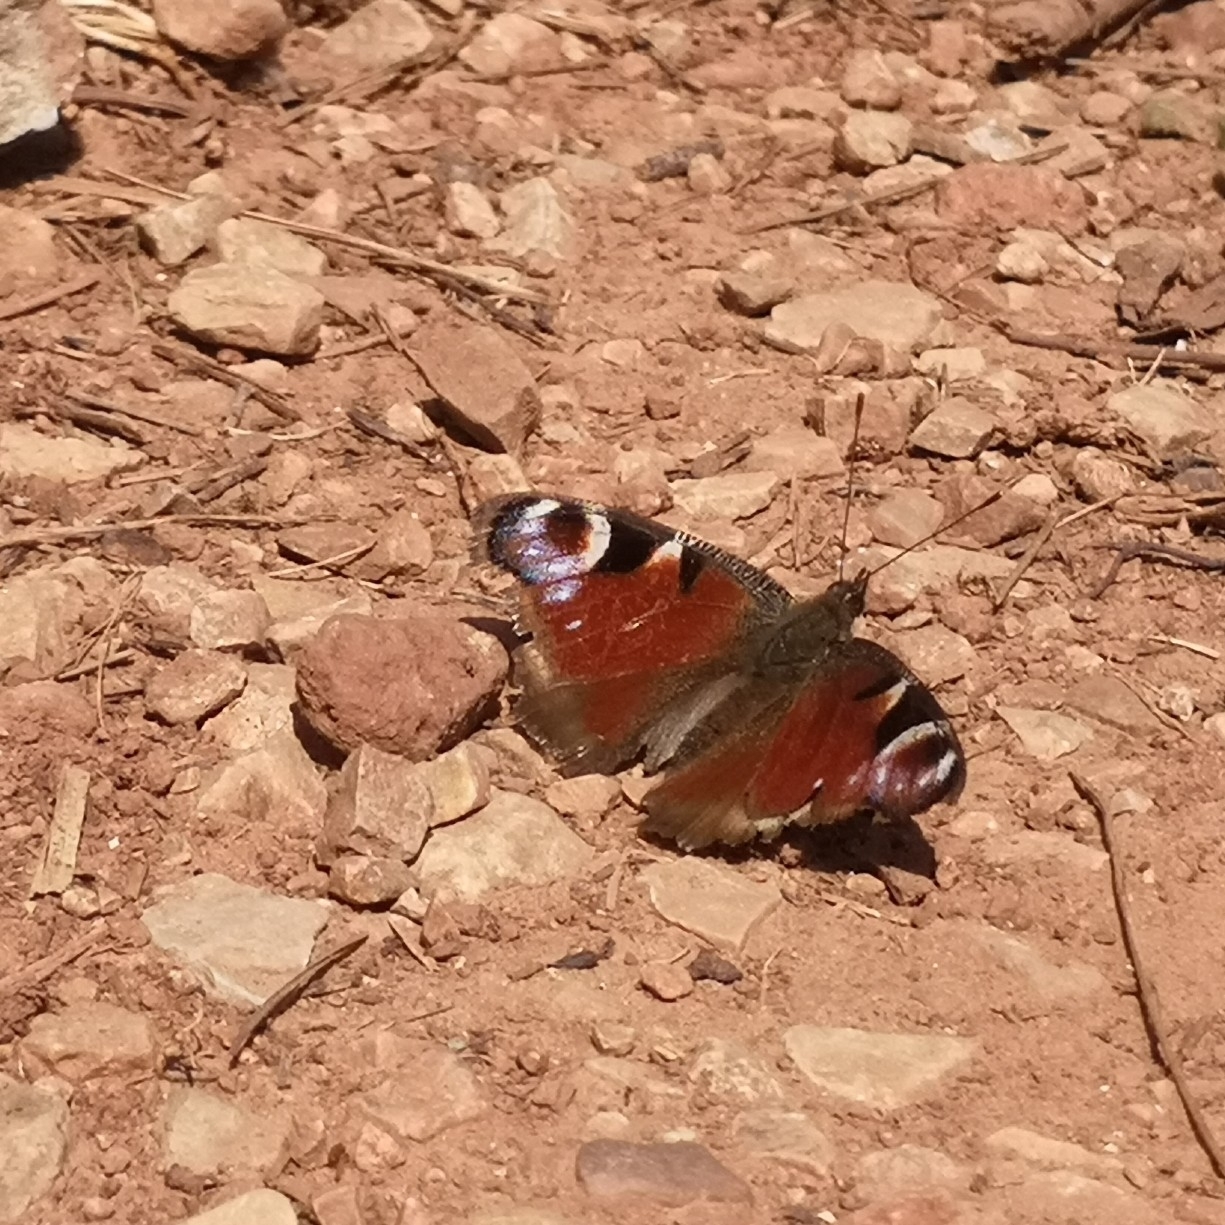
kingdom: Animalia
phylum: Arthropoda
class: Insecta
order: Lepidoptera
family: Nymphalidae
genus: Aglais
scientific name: Aglais io
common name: Peacock
